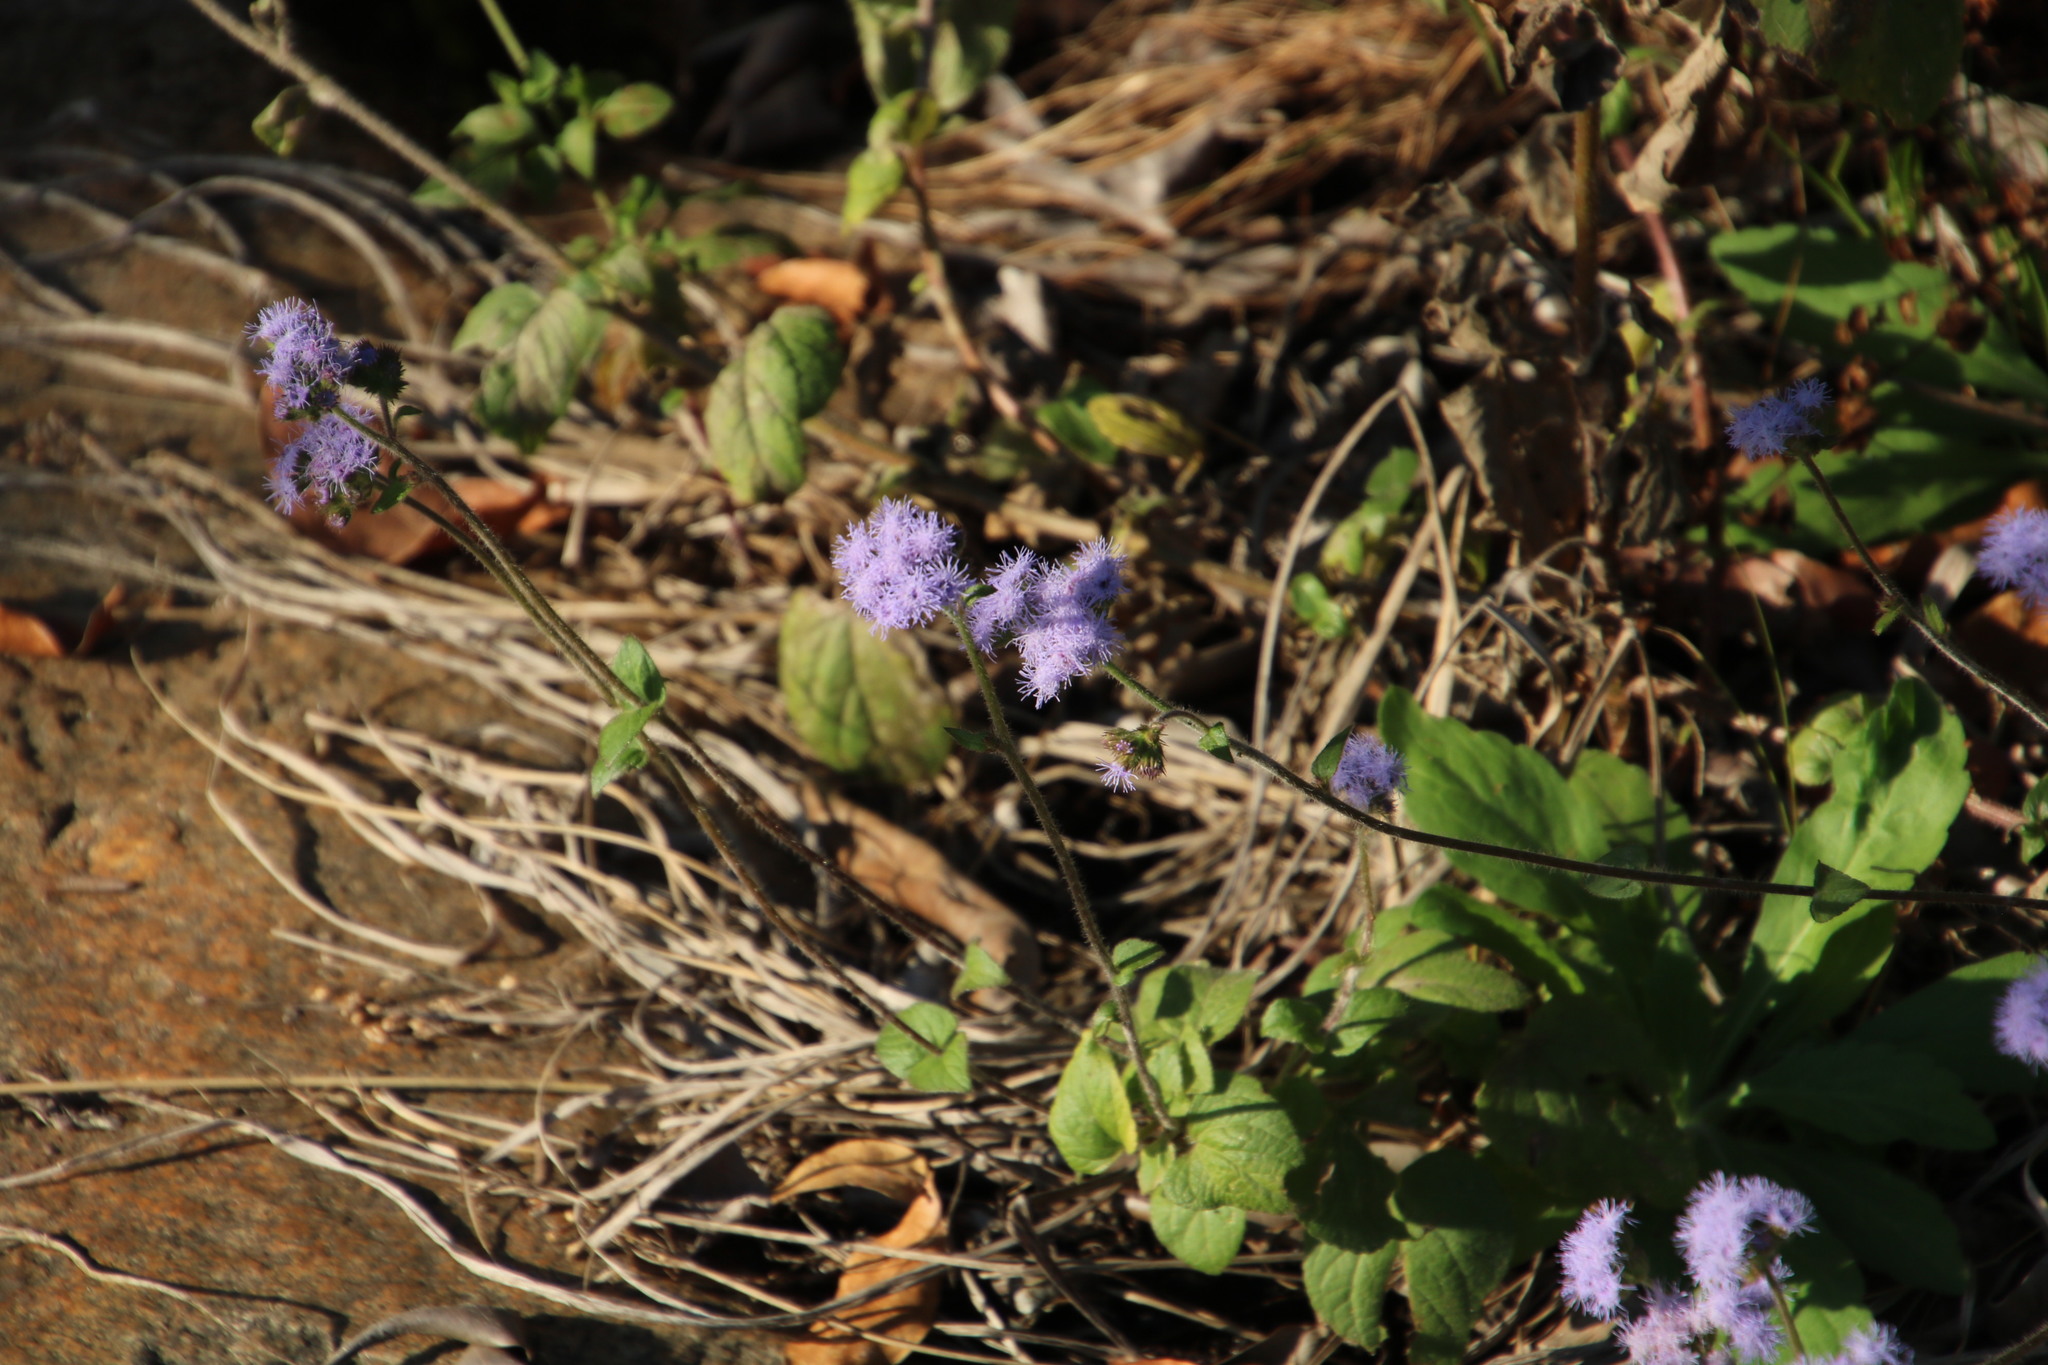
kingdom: Plantae
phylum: Tracheophyta
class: Magnoliopsida
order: Asterales
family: Asteraceae
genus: Ageratum
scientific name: Ageratum houstonianum
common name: Bluemink
